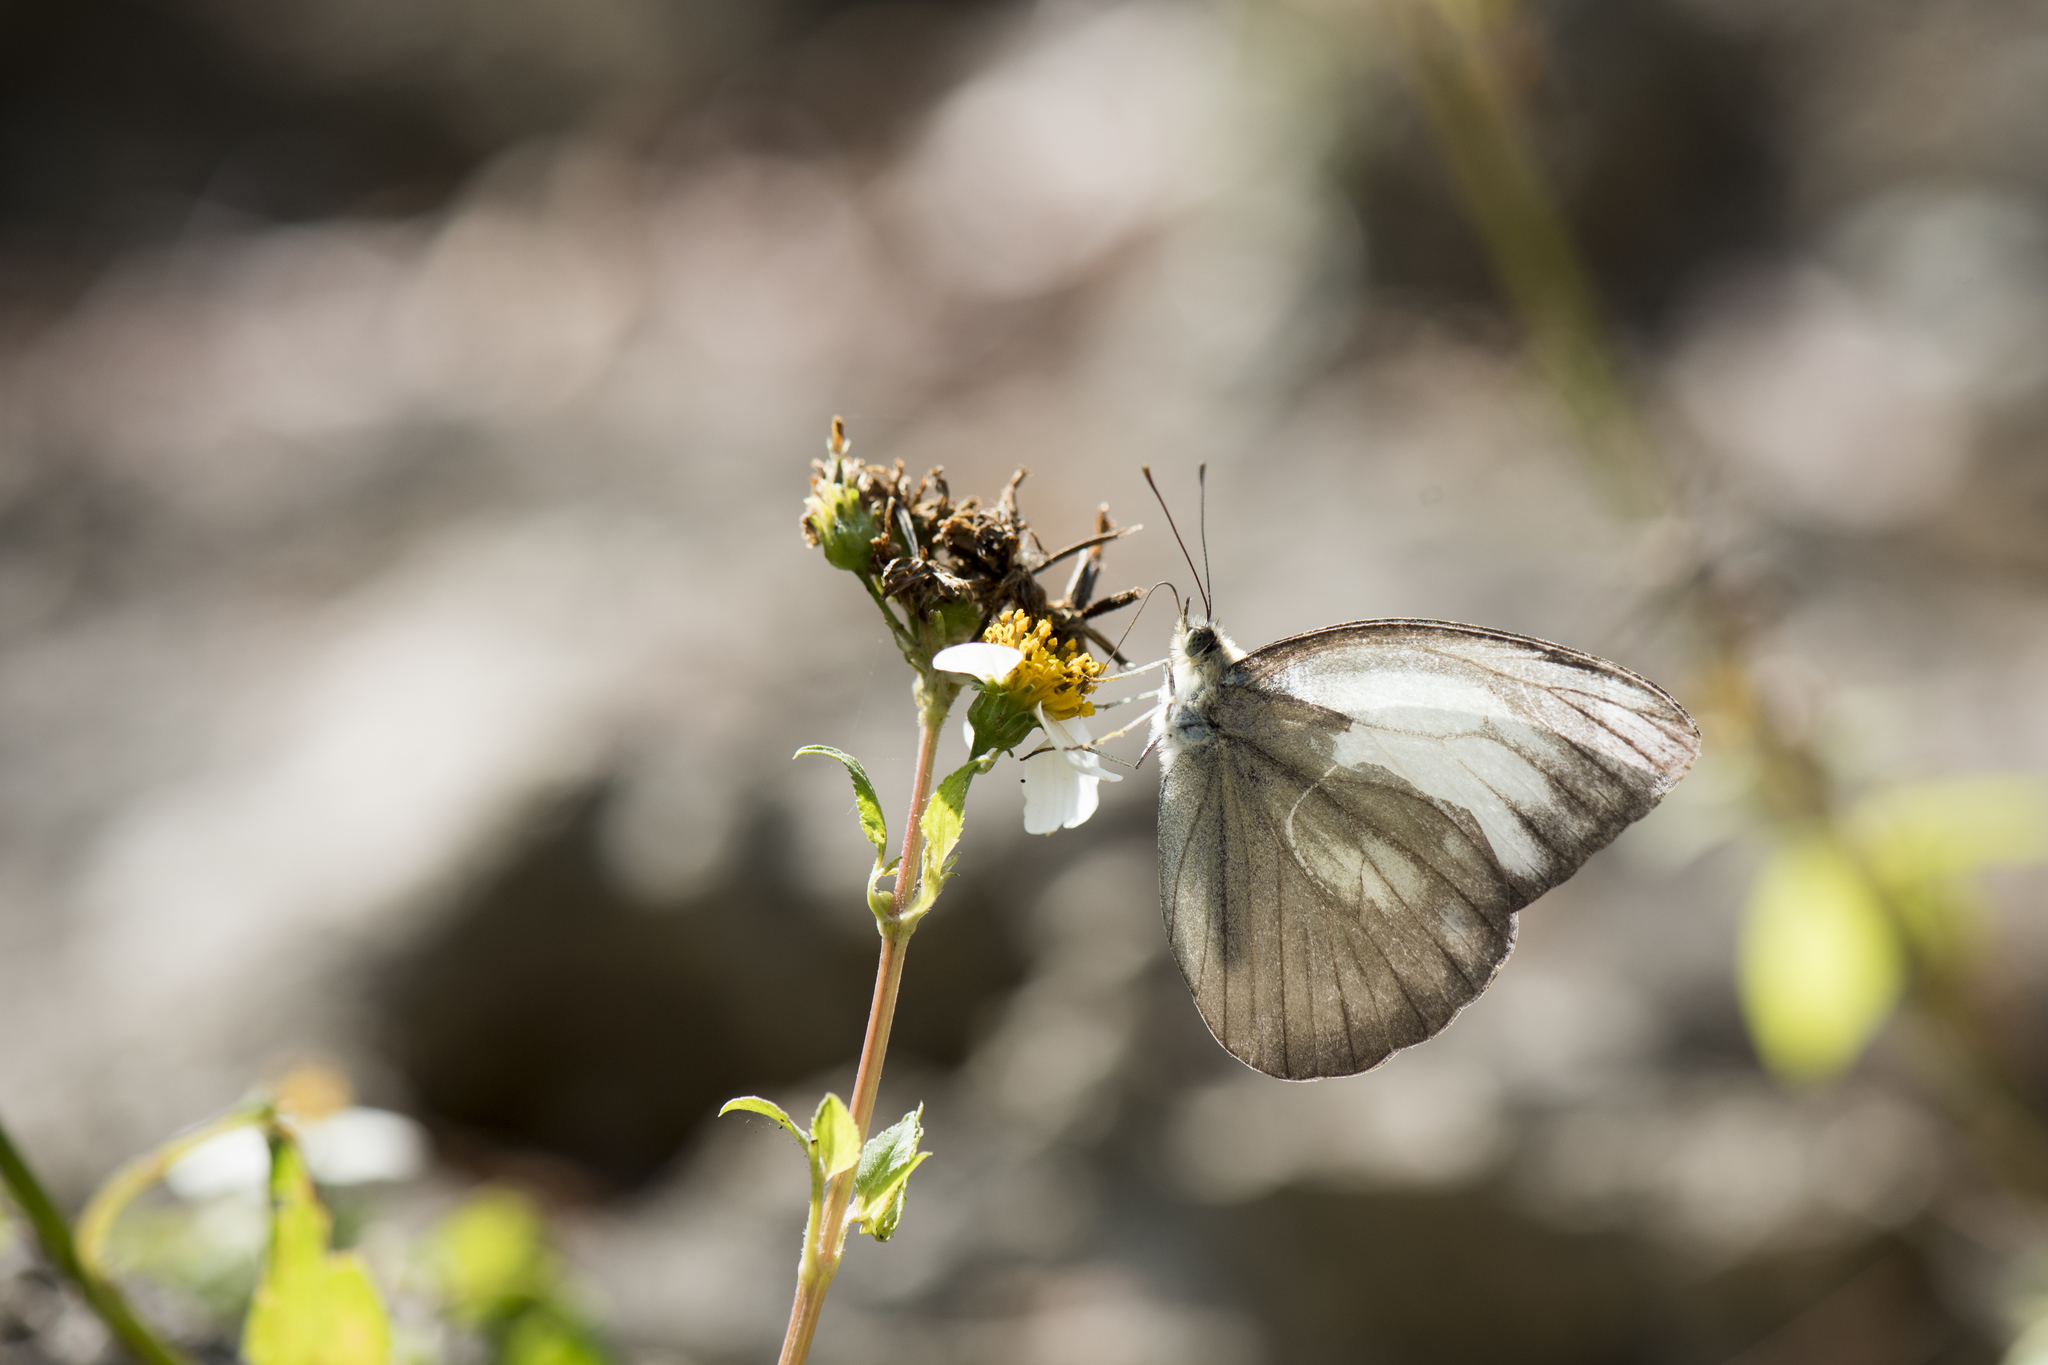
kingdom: Animalia
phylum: Arthropoda
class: Insecta
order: Lepidoptera
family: Pieridae
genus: Cepora
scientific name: Cepora nadina
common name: Lesser gull
